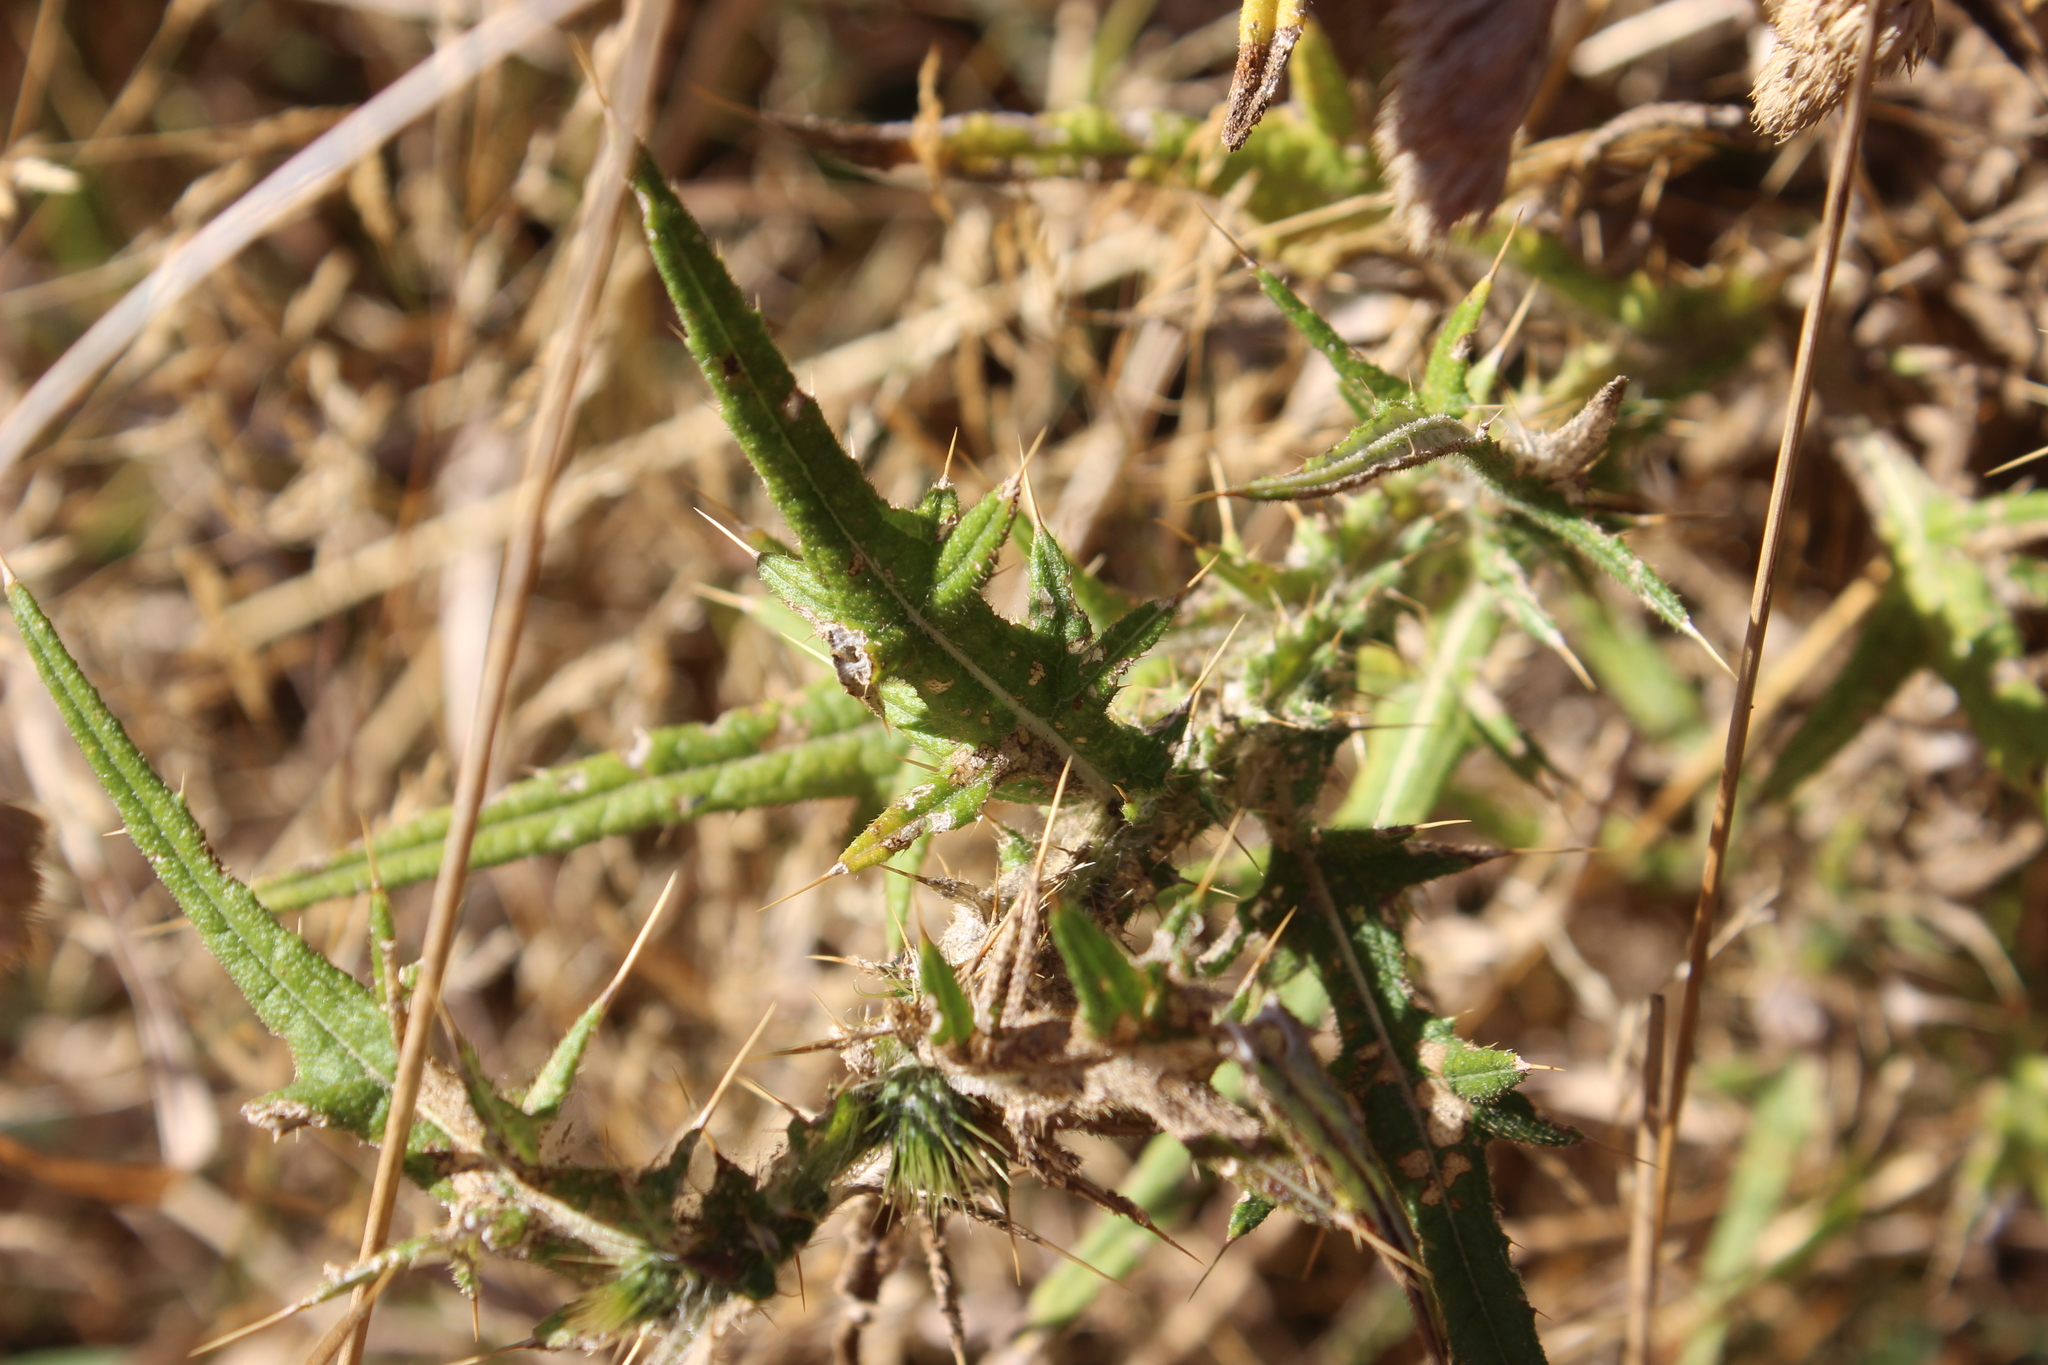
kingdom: Plantae
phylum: Tracheophyta
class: Magnoliopsida
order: Asterales
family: Asteraceae
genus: Cirsium
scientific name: Cirsium vulgare
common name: Bull thistle
